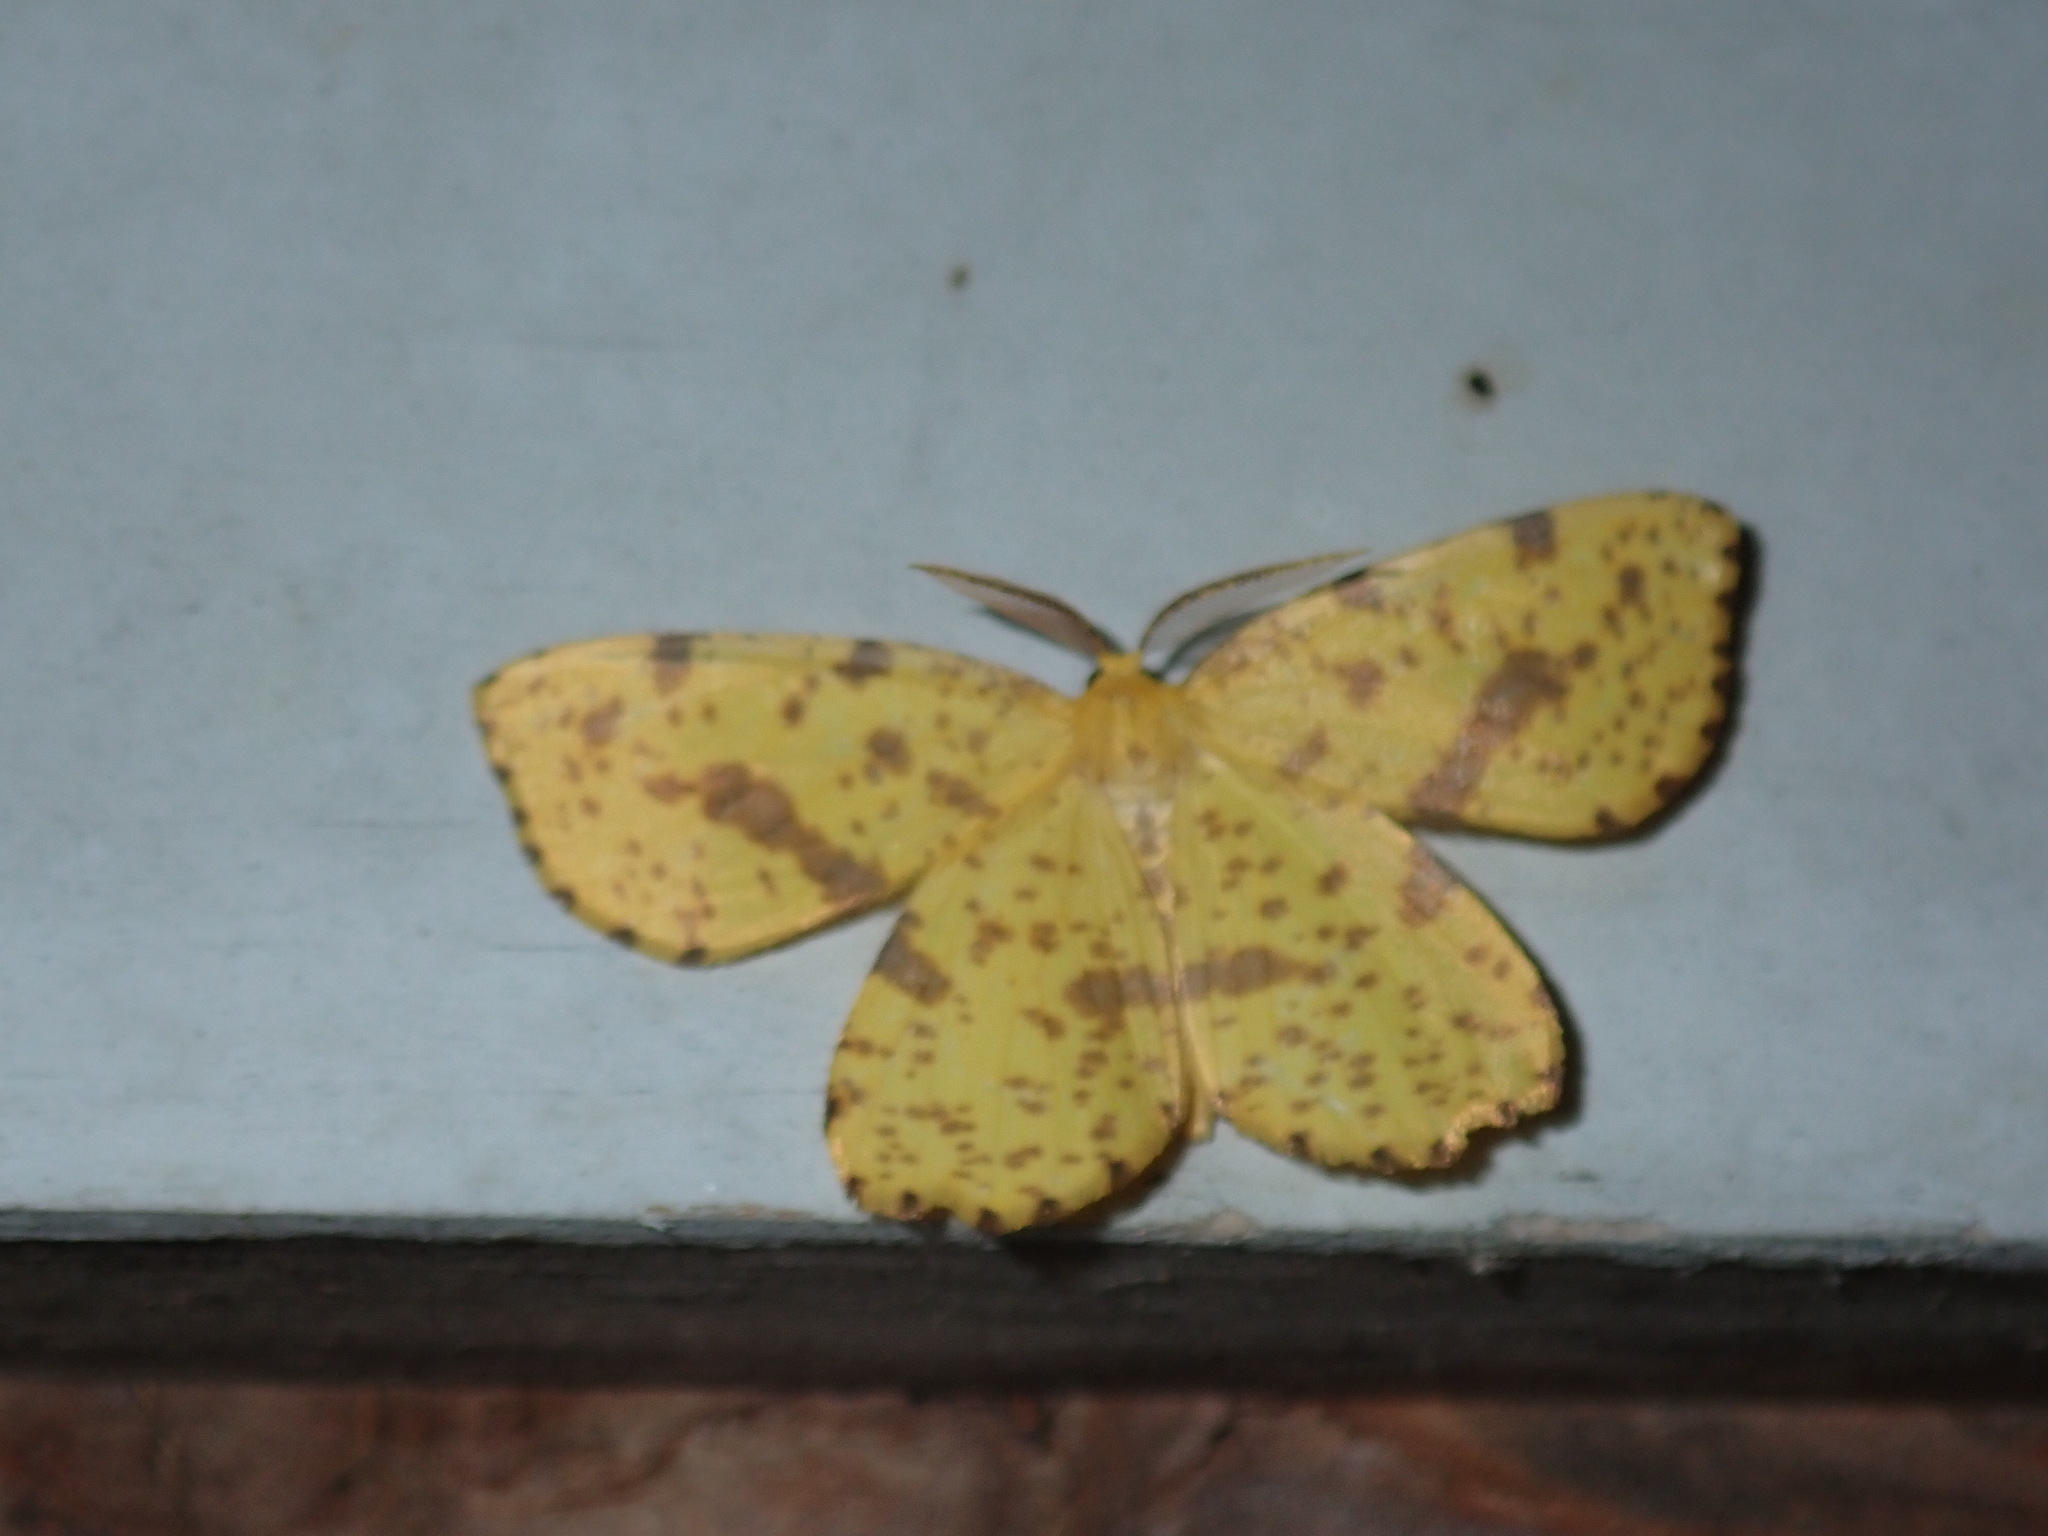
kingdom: Animalia
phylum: Arthropoda
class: Insecta
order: Lepidoptera
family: Geometridae
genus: Xanthotype
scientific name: Xanthotype
